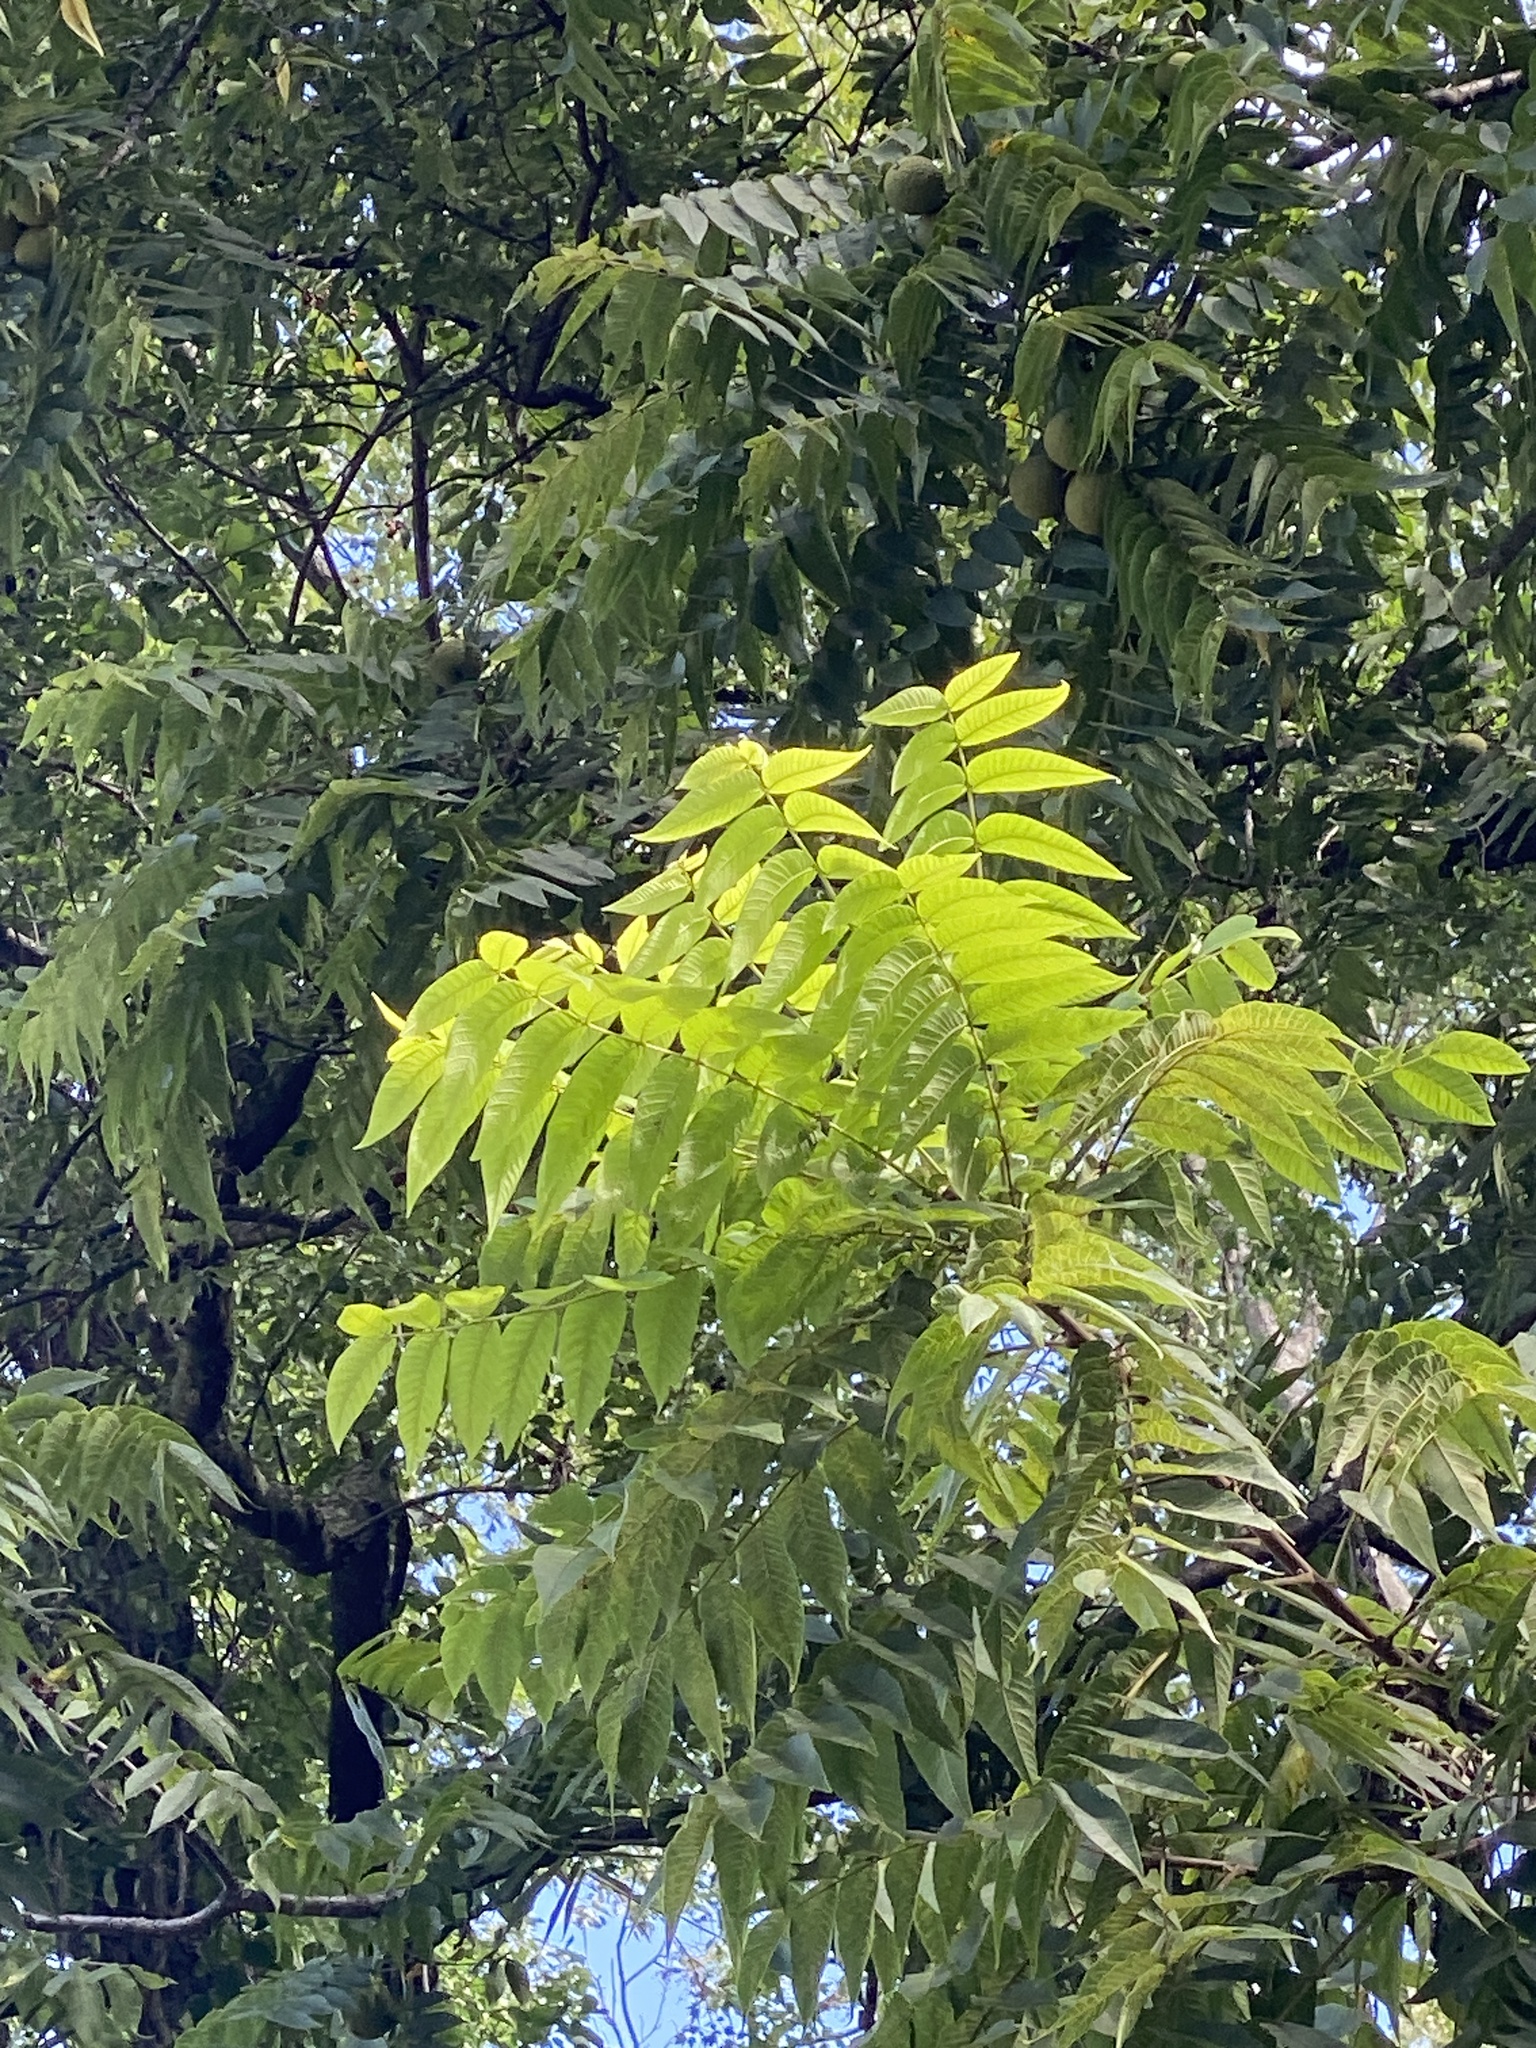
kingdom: Plantae
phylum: Tracheophyta
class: Magnoliopsida
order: Fagales
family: Juglandaceae
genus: Juglans
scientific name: Juglans nigra
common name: Black walnut
